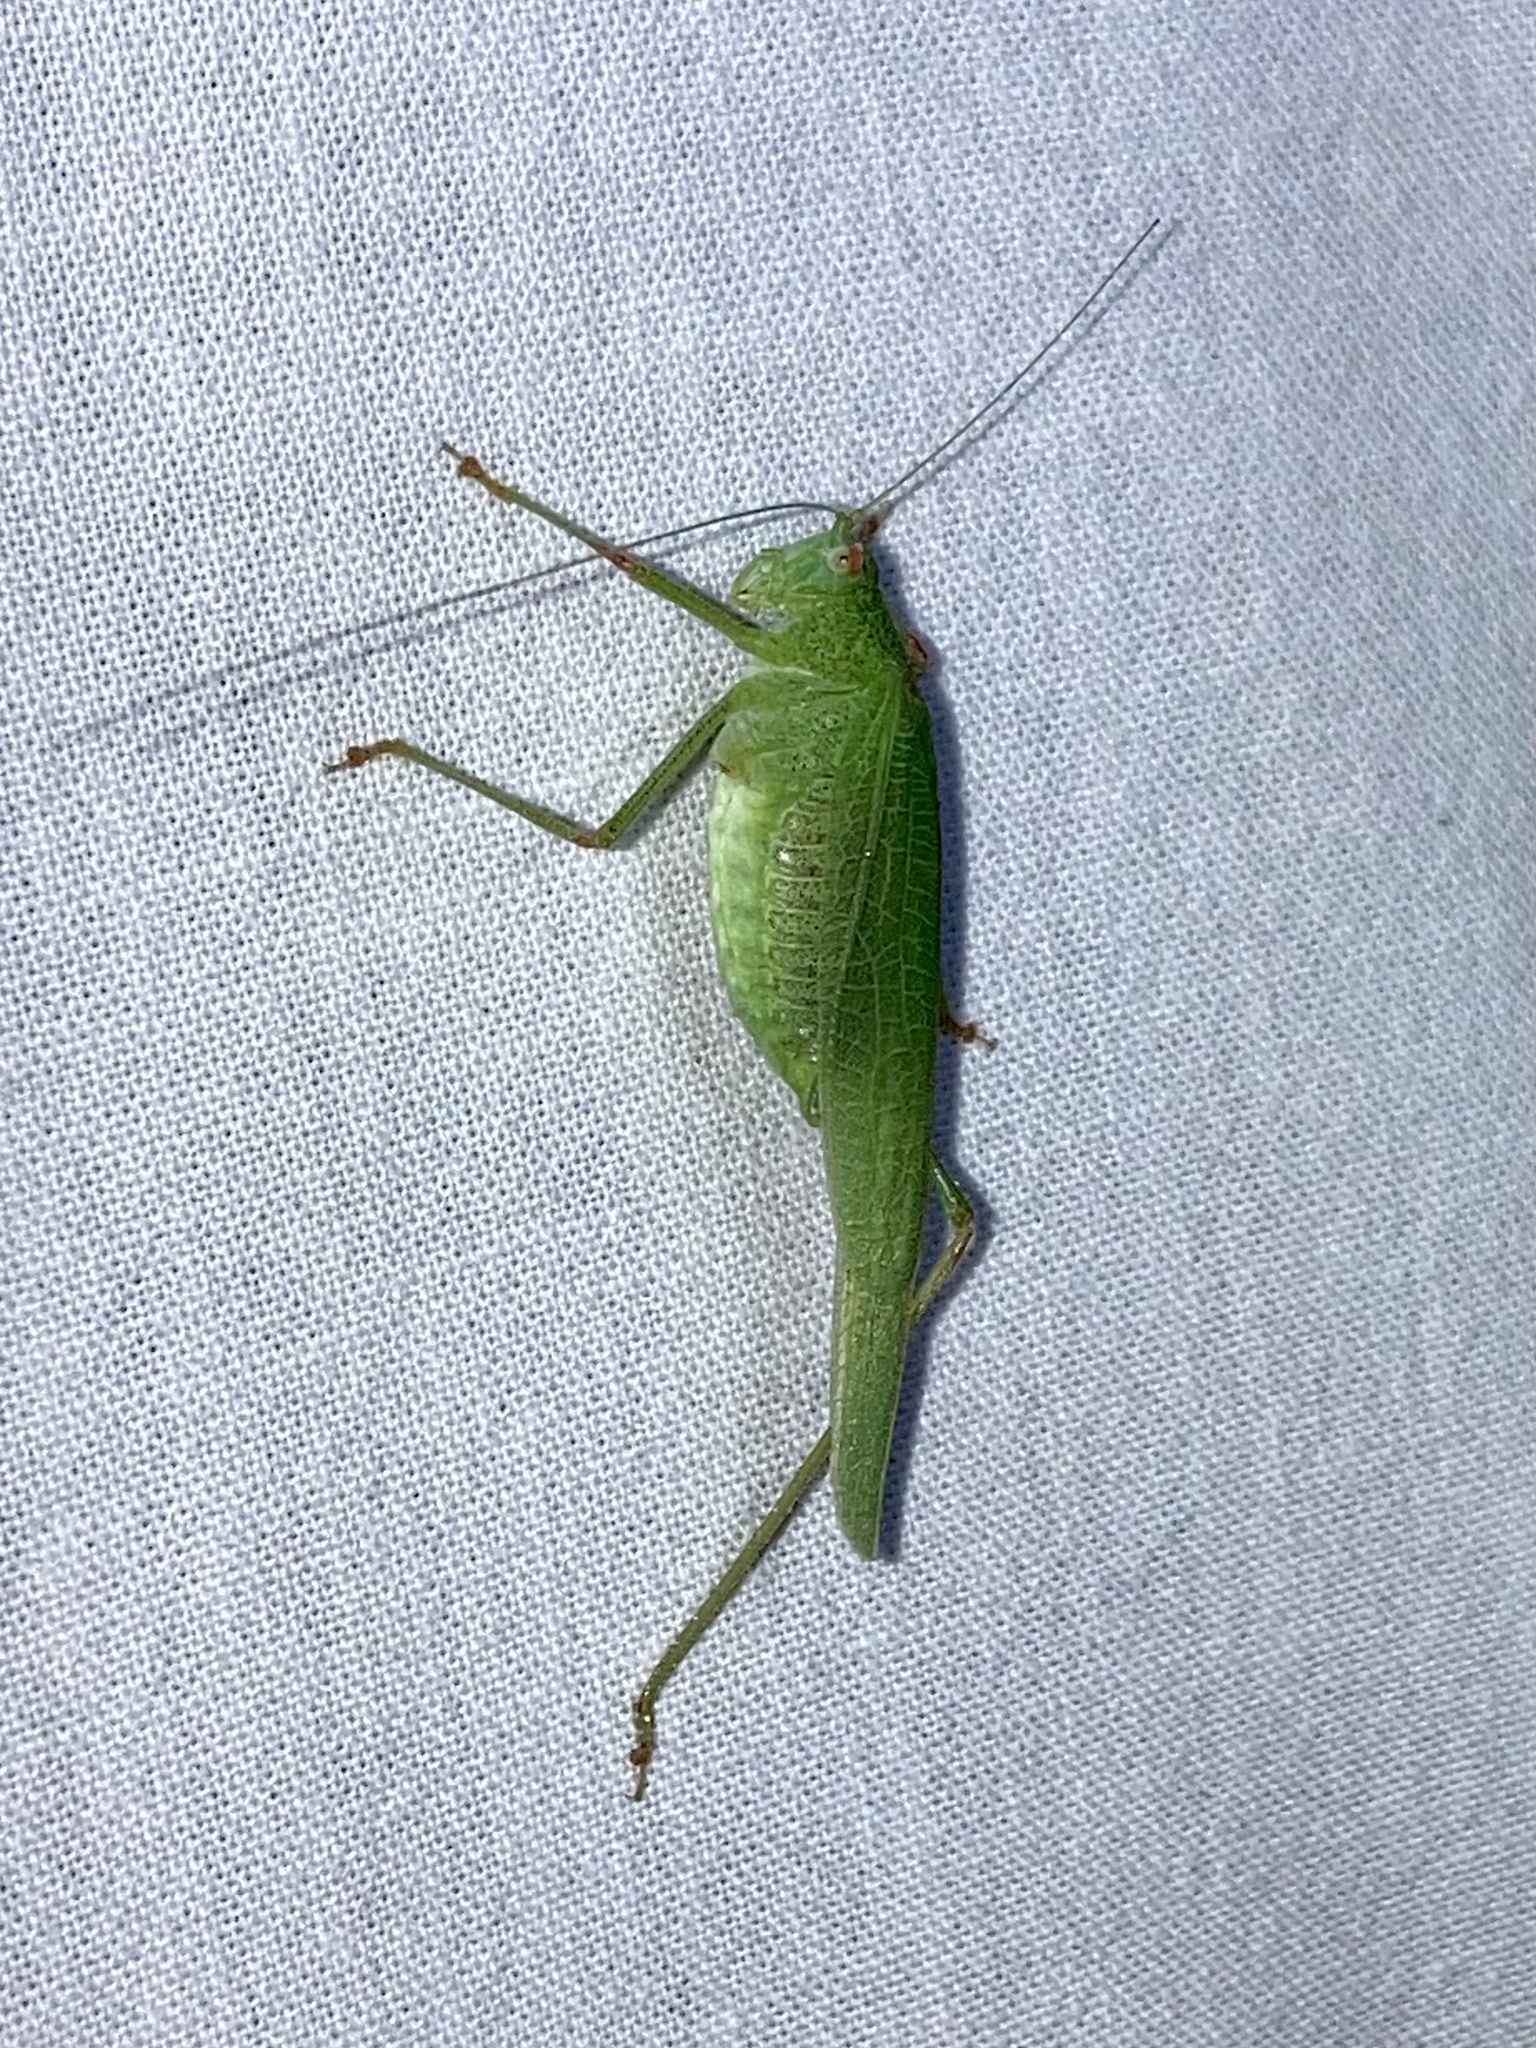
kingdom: Animalia
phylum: Arthropoda
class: Insecta
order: Orthoptera
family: Tettigoniidae
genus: Phaneroptera
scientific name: Phaneroptera nana
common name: Southern sickle bush-cricket
